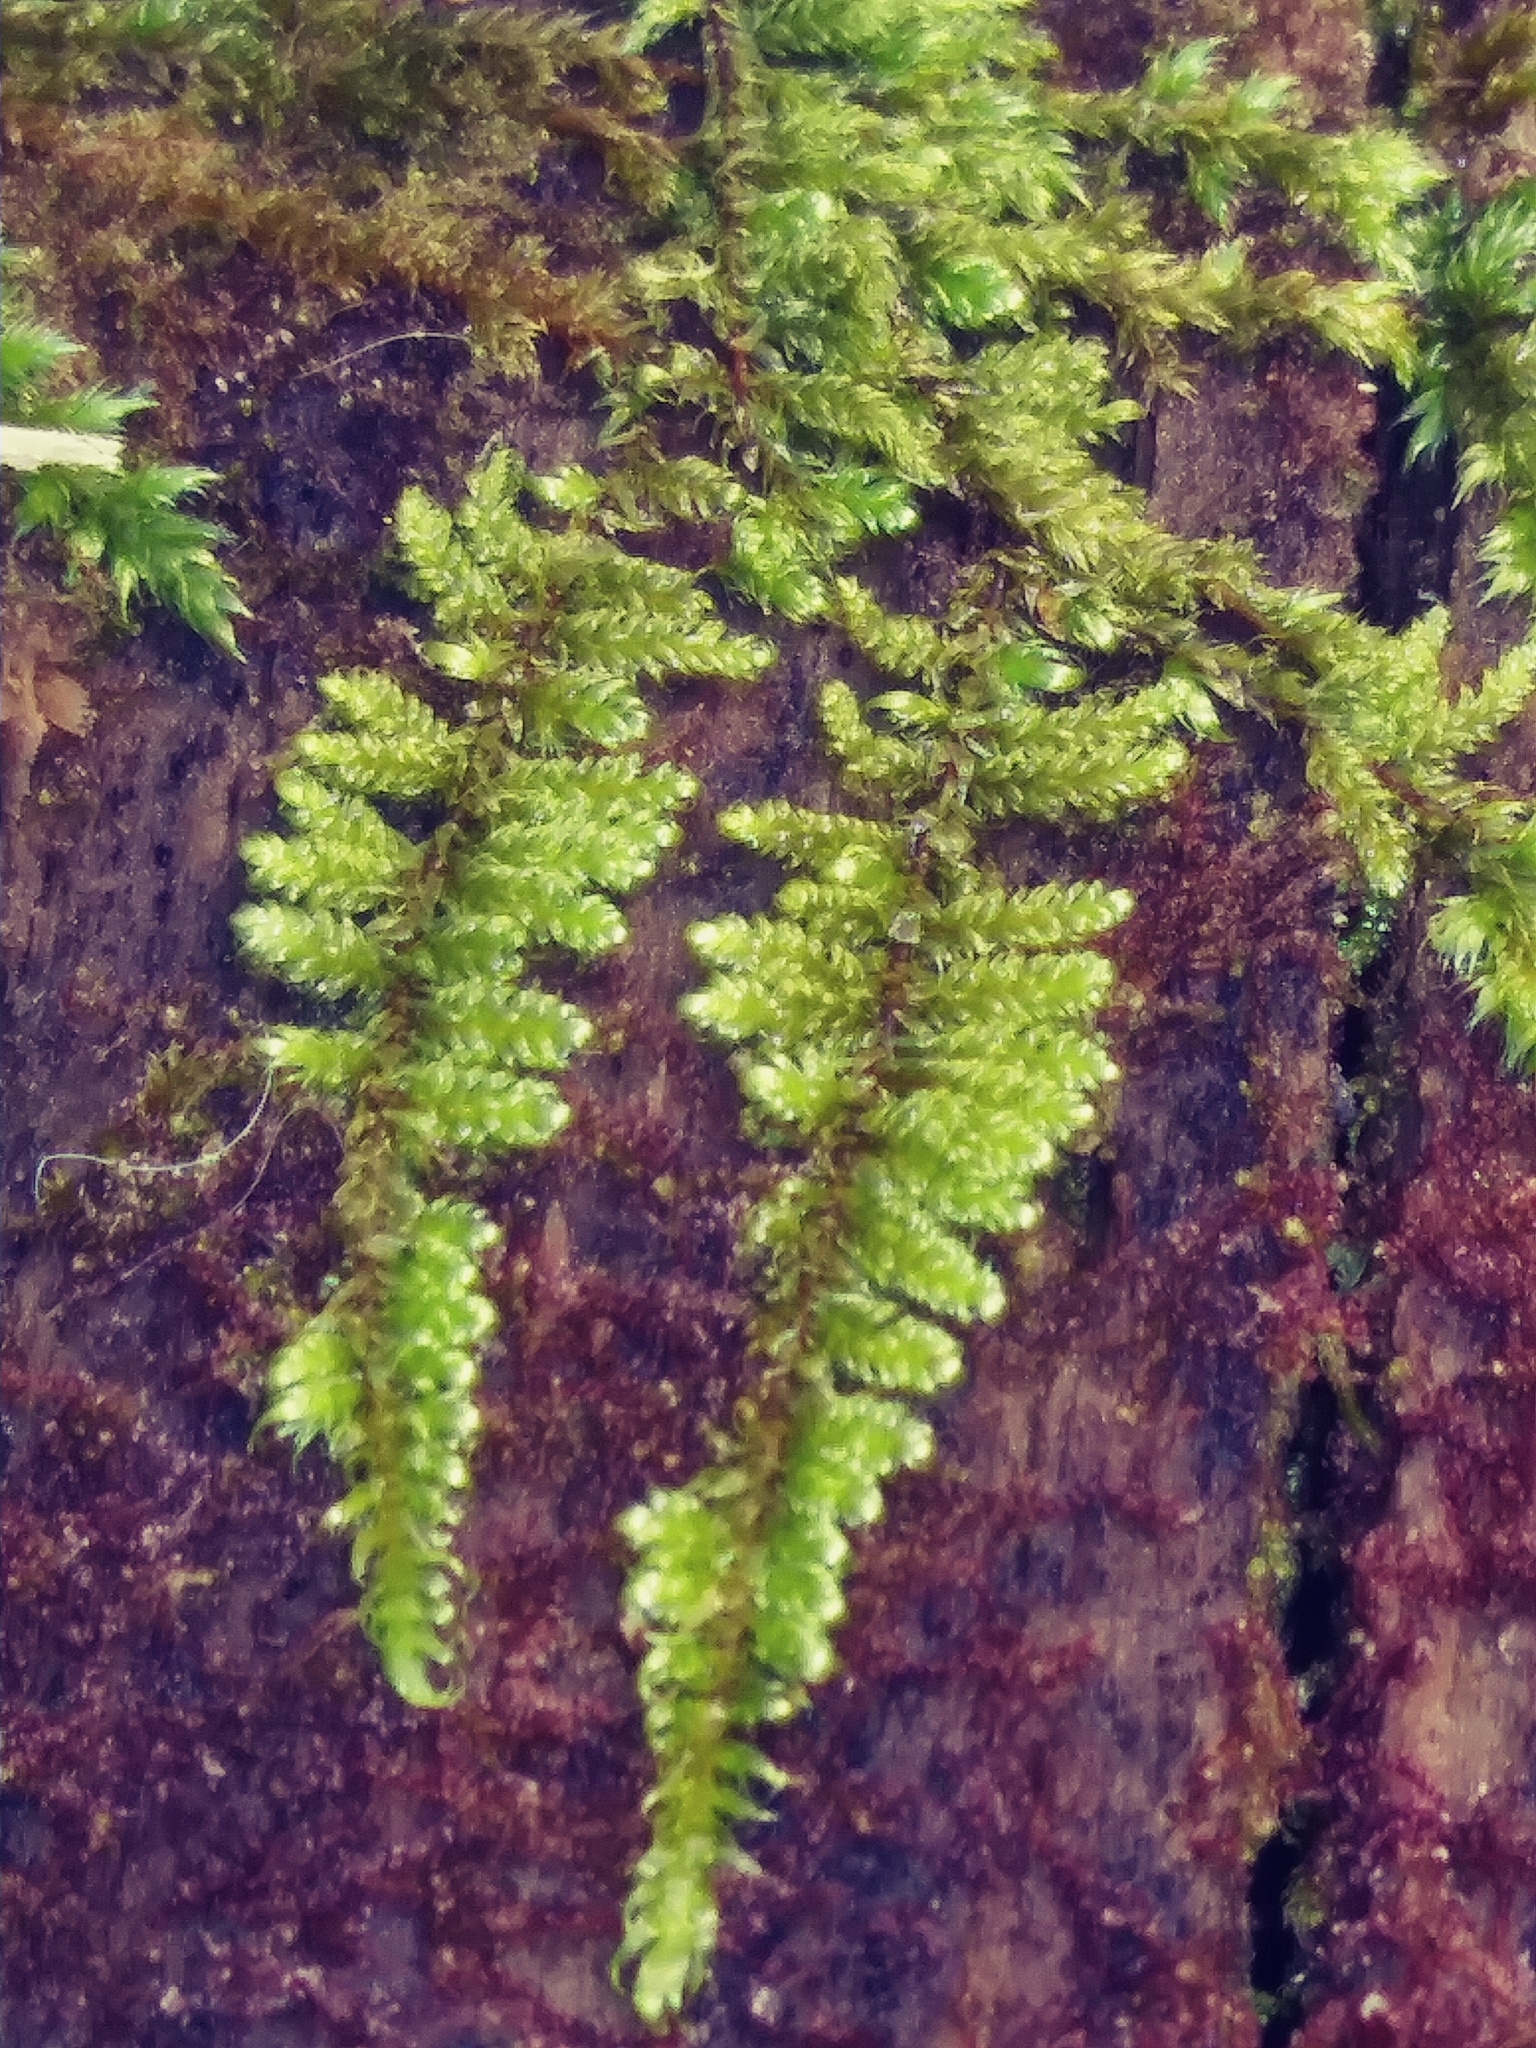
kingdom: Plantae
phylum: Bryophyta
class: Bryopsida
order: Hypnales
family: Callicladiaceae
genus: Callicladium
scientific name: Callicladium imponens
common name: Brocade moss
